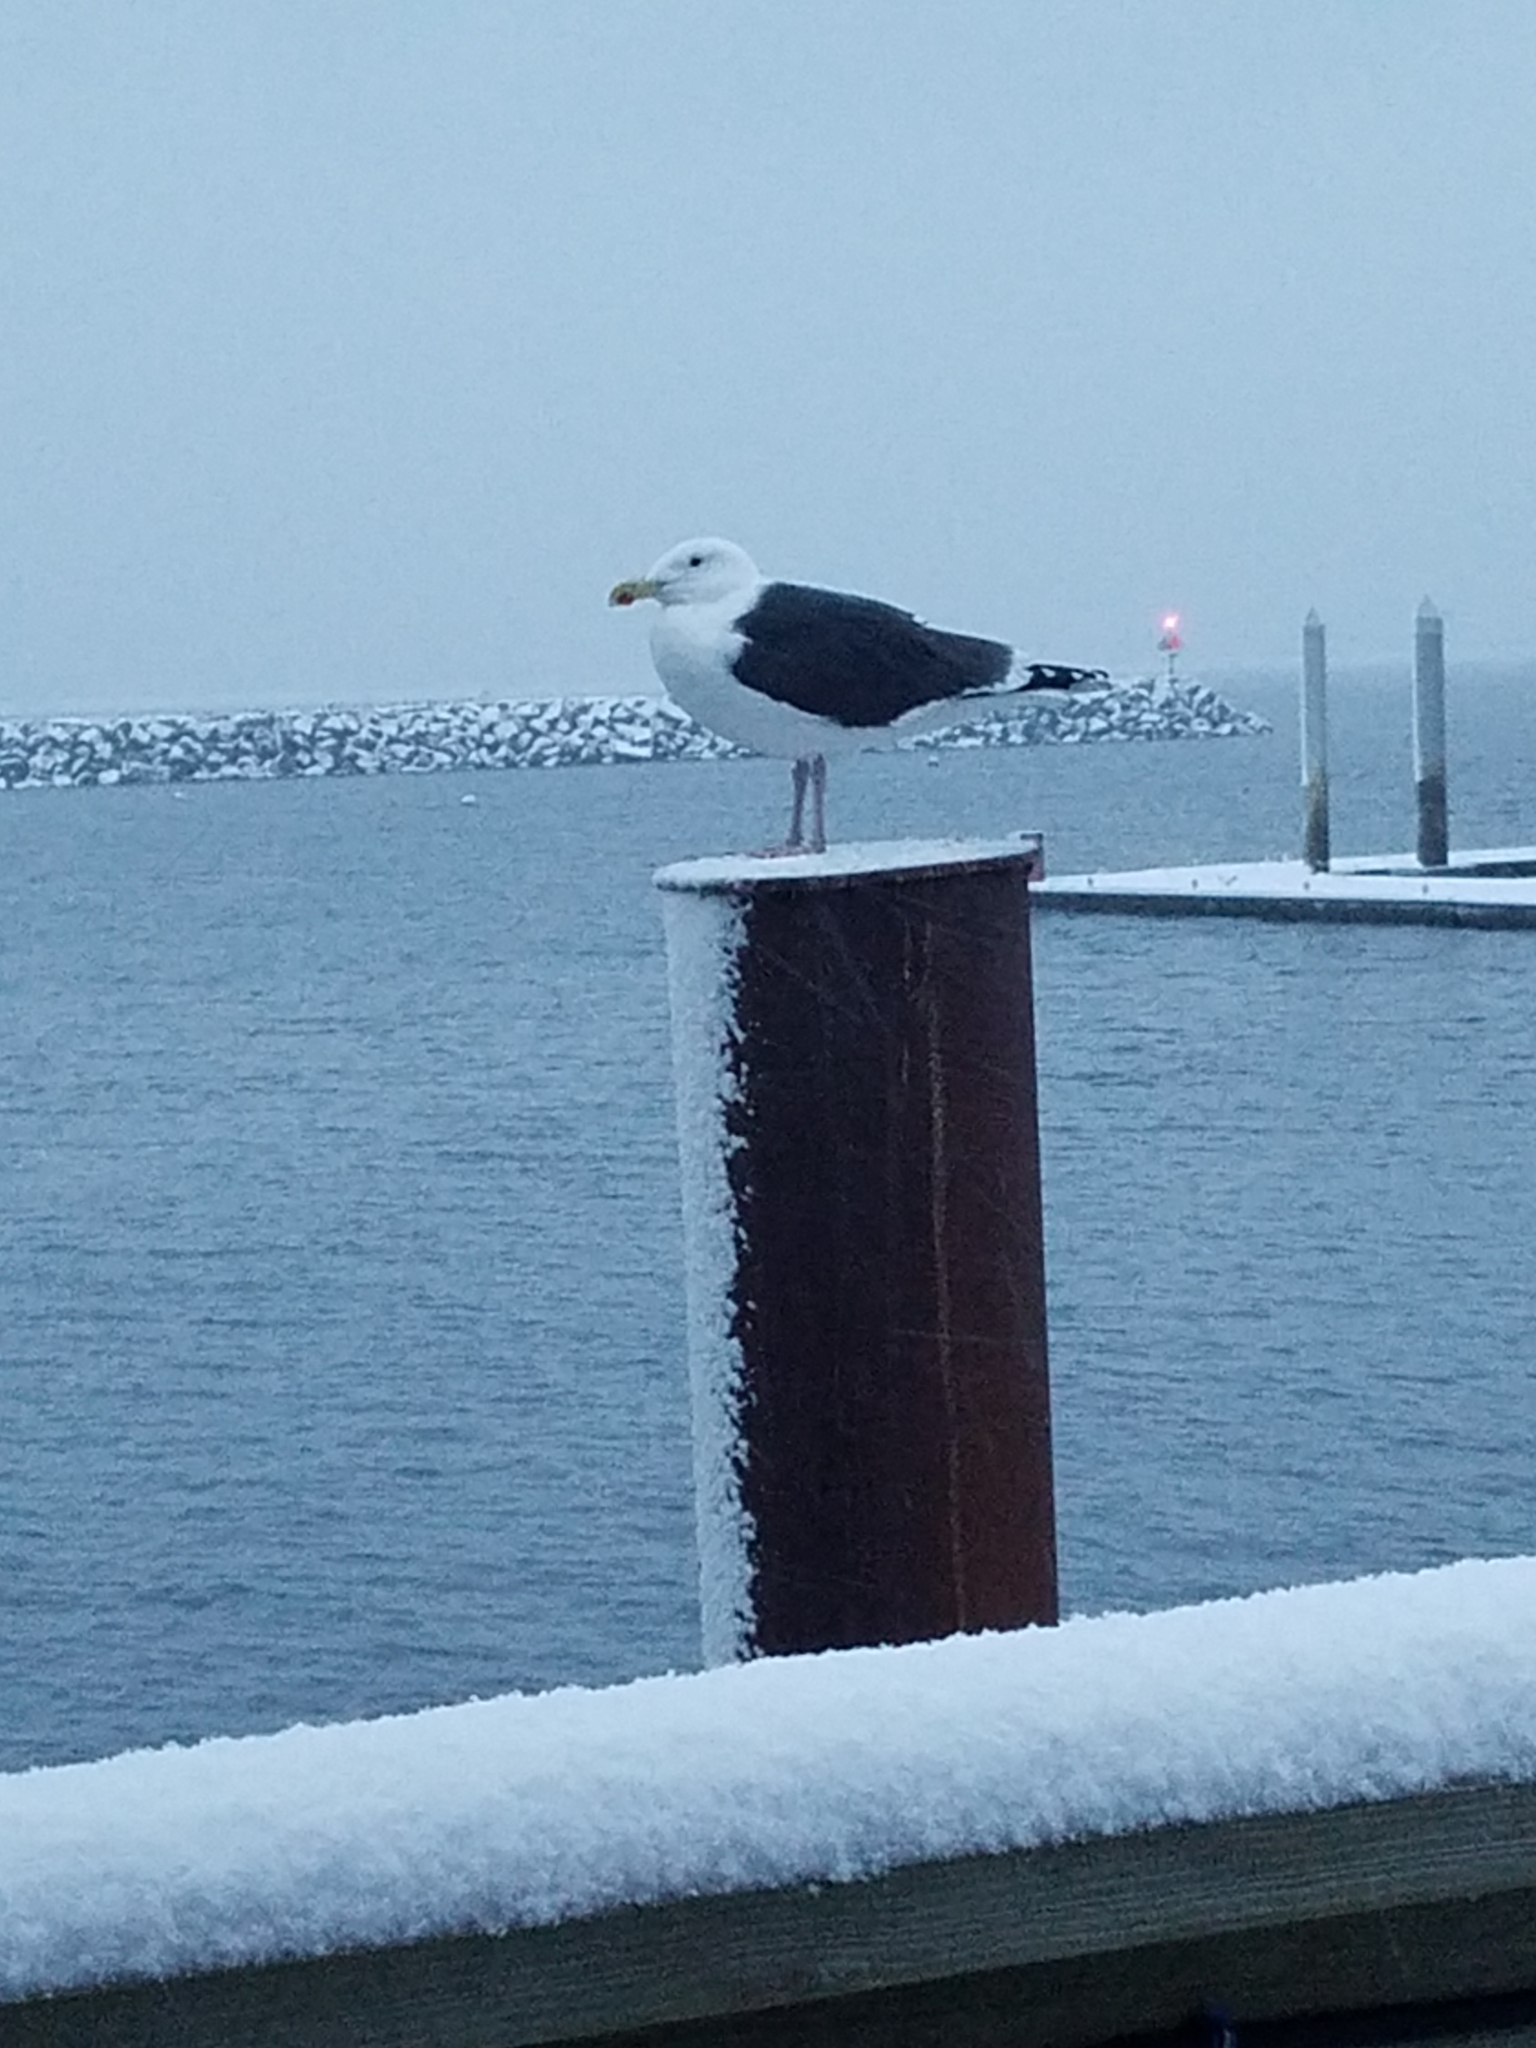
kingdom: Animalia
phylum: Chordata
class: Aves
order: Charadriiformes
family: Laridae
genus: Larus
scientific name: Larus marinus
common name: Great black-backed gull
